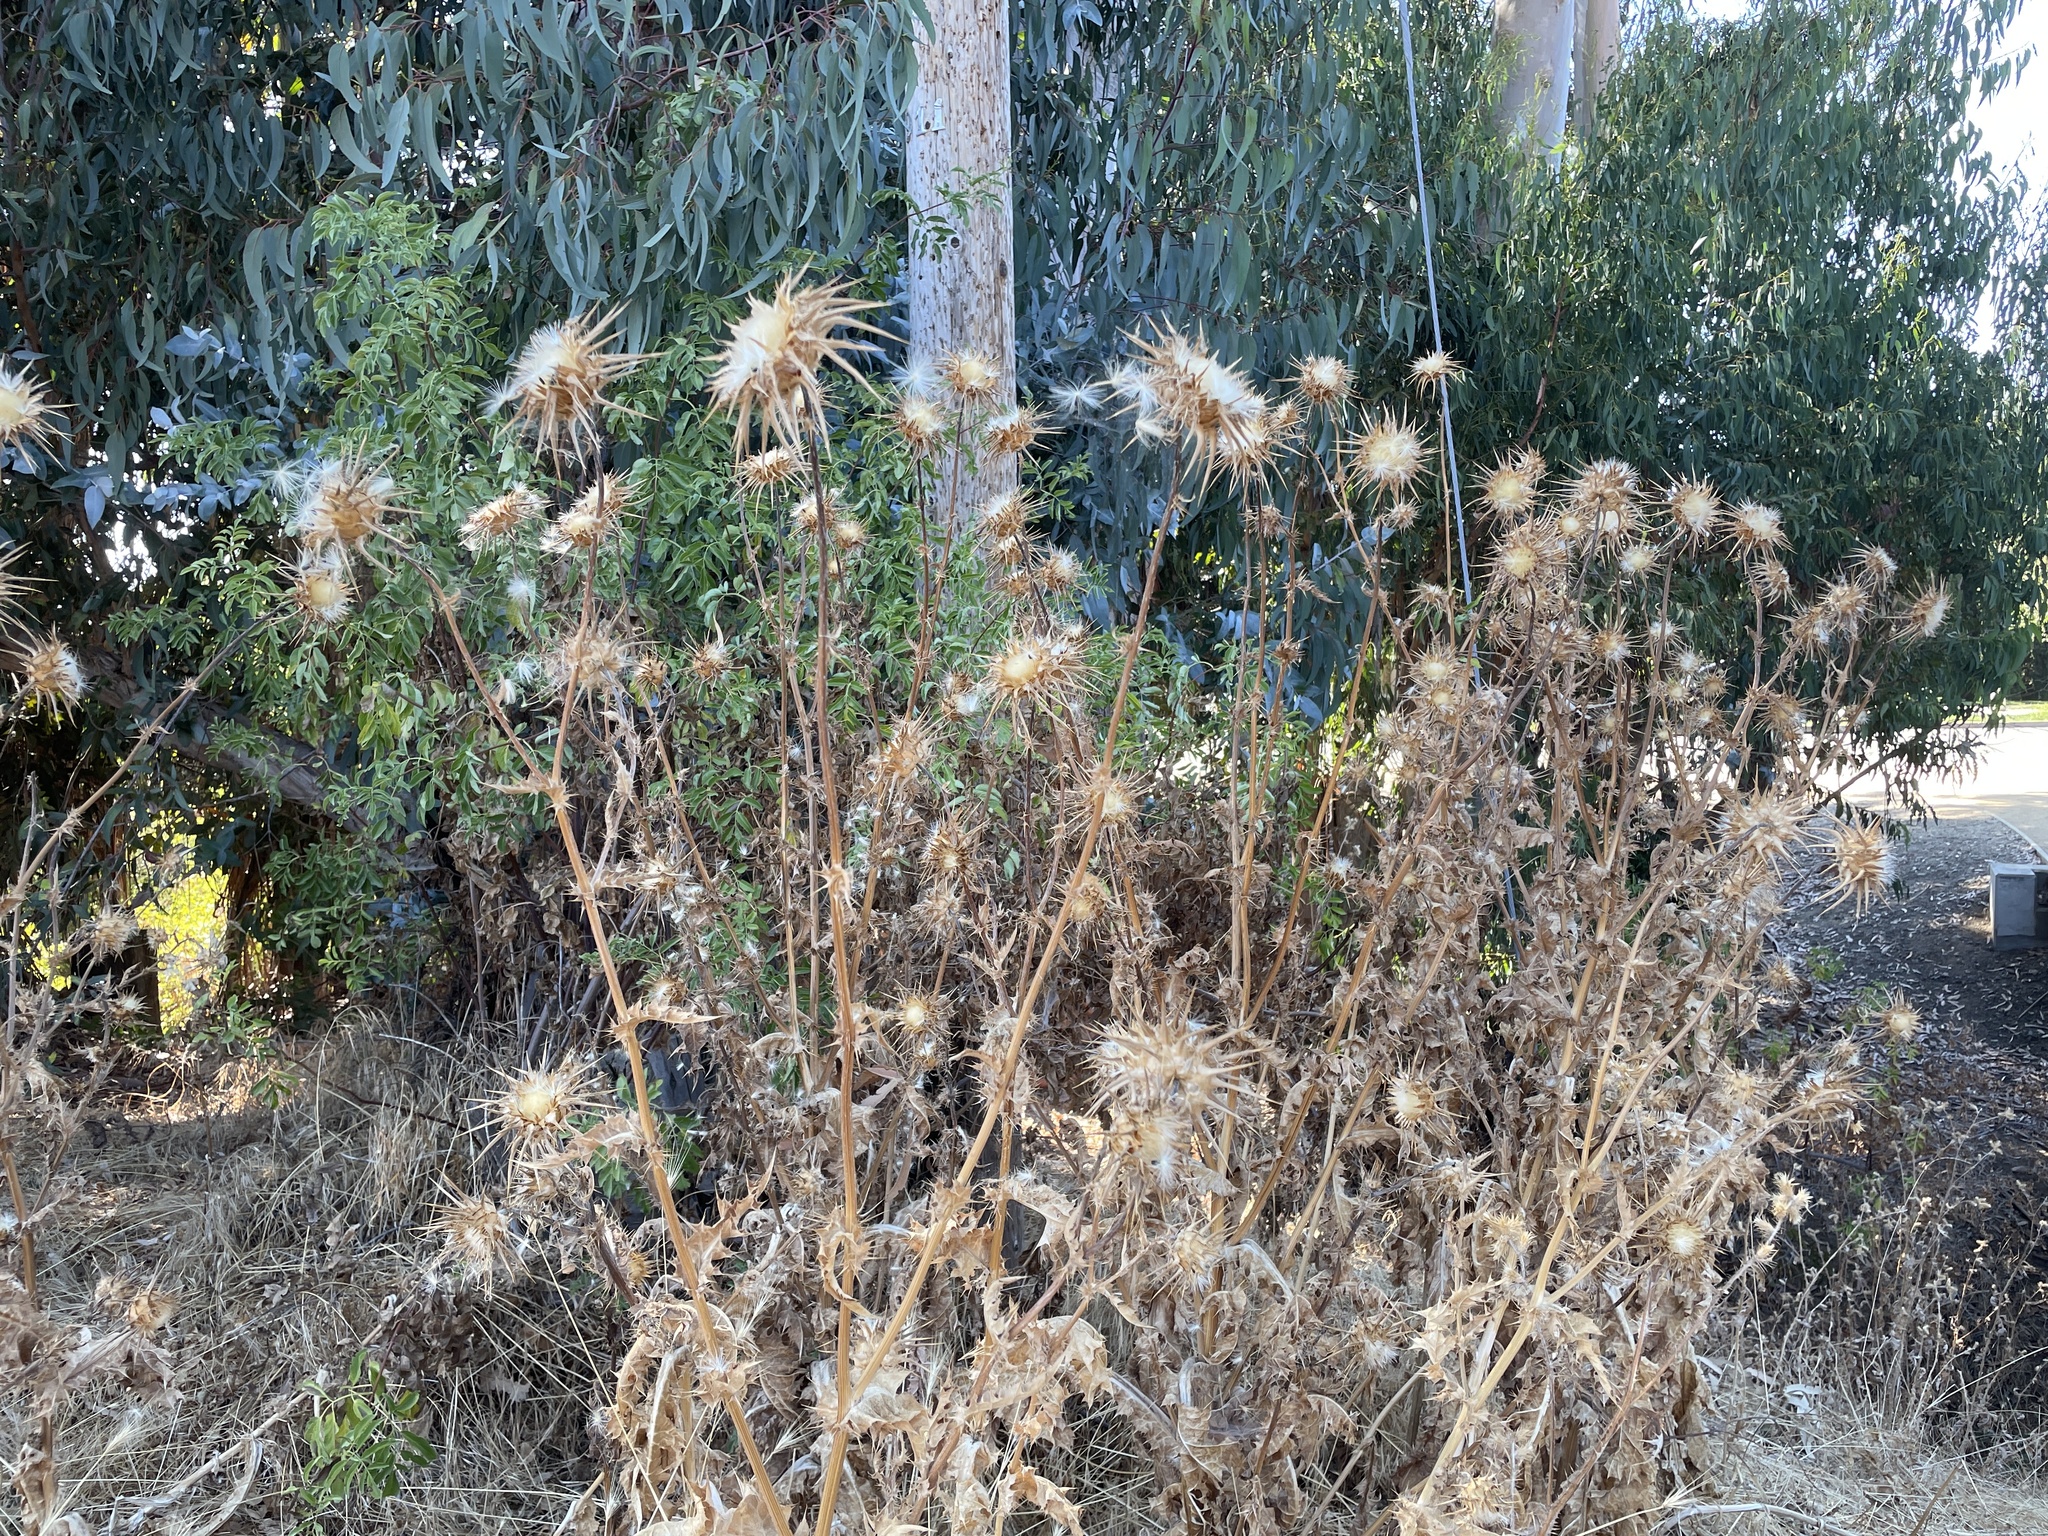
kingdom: Plantae
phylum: Tracheophyta
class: Magnoliopsida
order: Asterales
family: Asteraceae
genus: Silybum
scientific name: Silybum marianum
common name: Milk thistle
